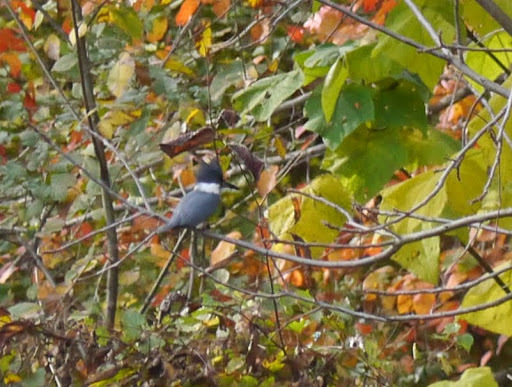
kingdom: Animalia
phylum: Chordata
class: Aves
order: Coraciiformes
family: Alcedinidae
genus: Megaceryle
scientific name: Megaceryle alcyon
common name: Belted kingfisher
